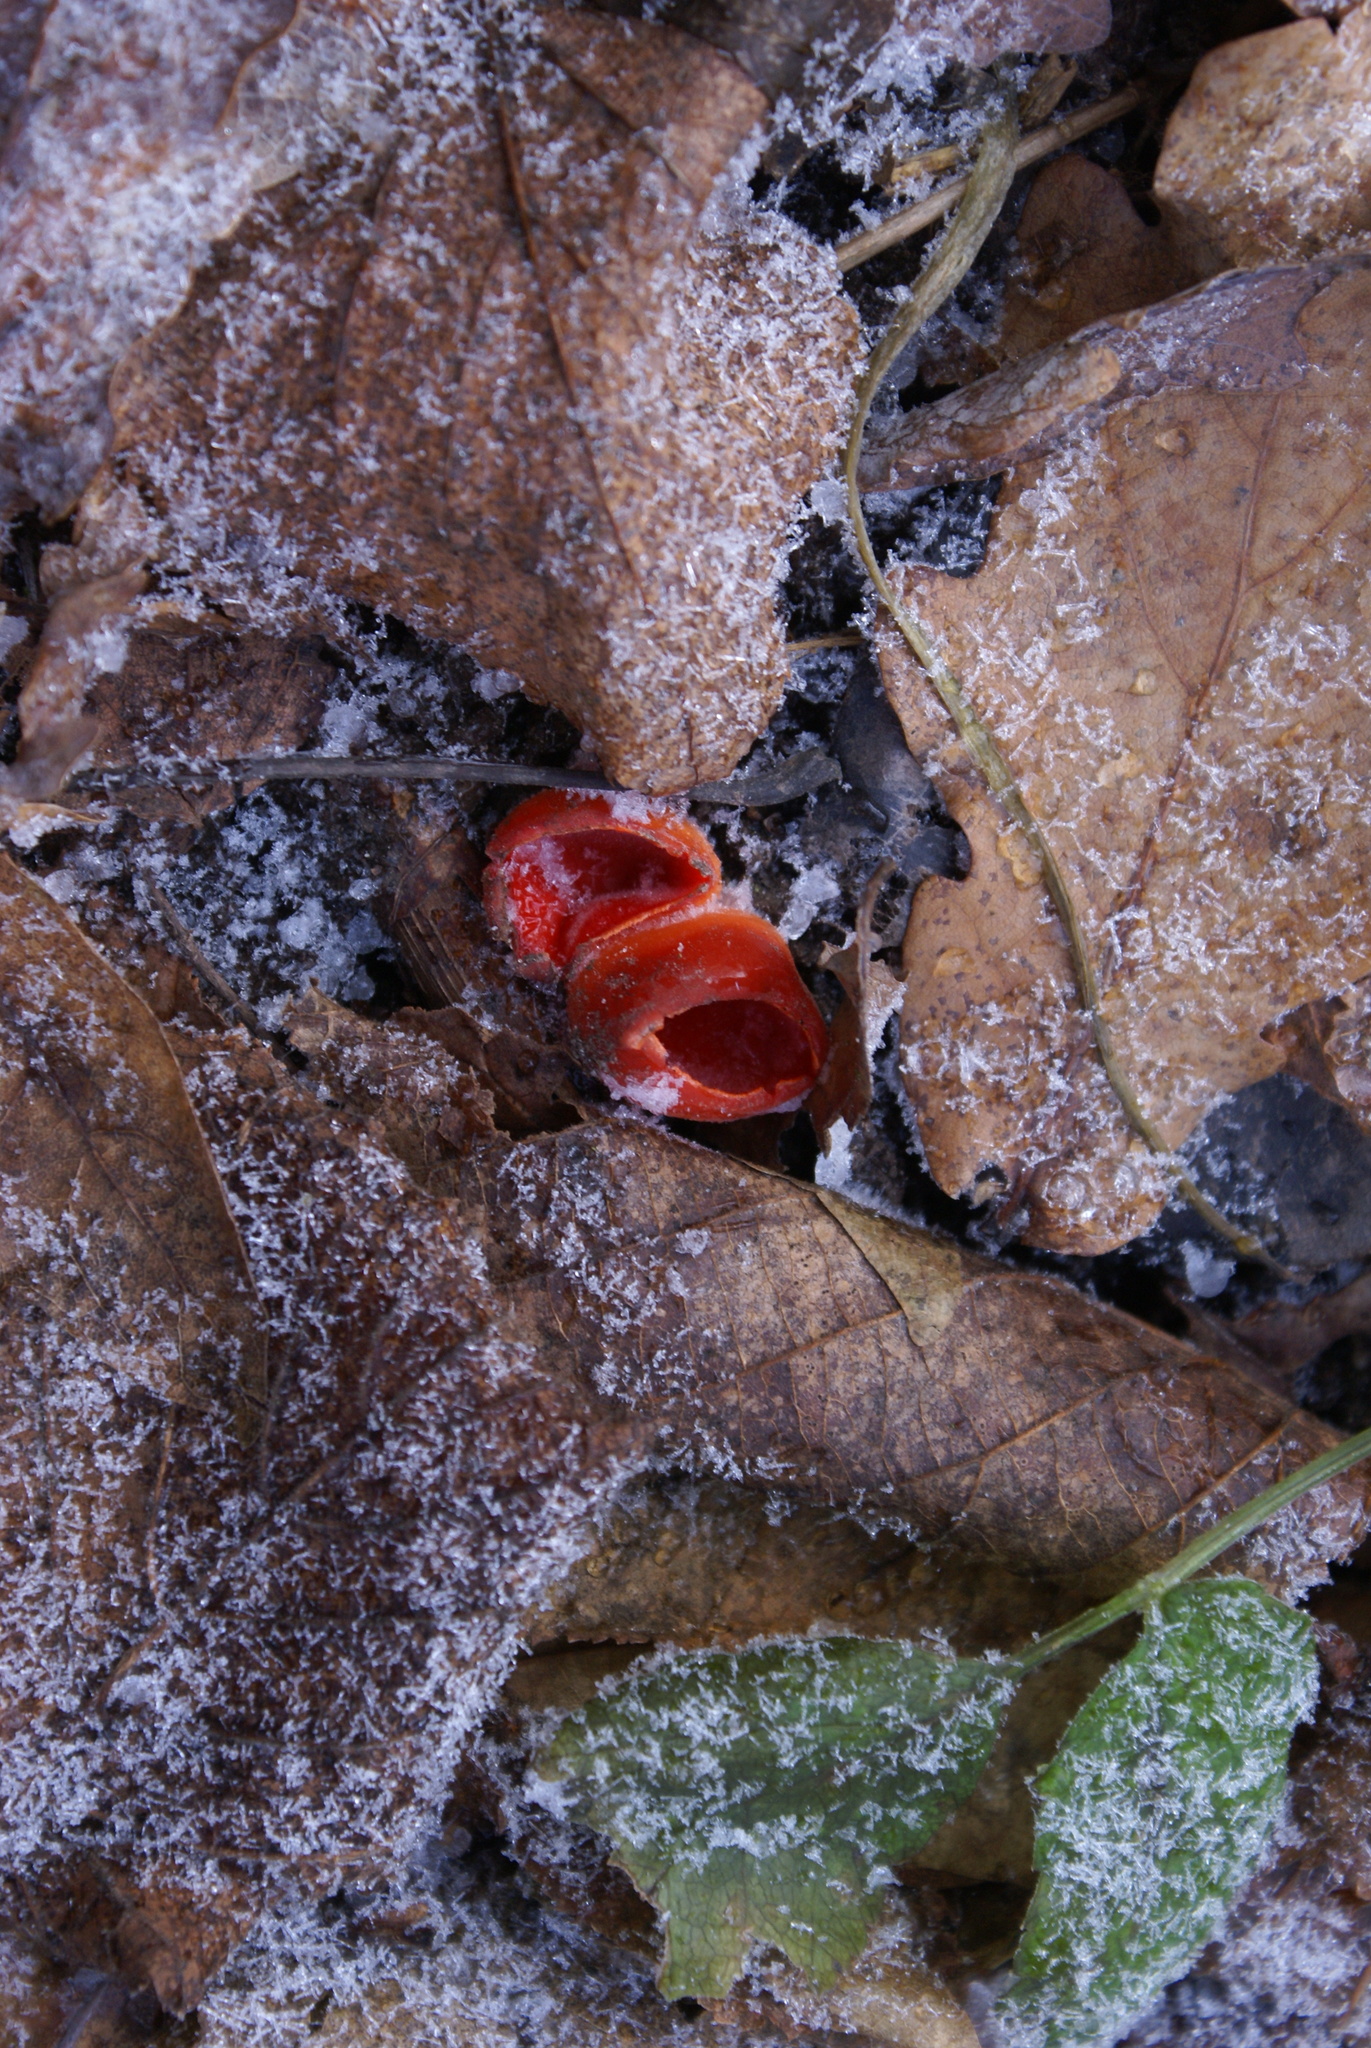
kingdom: Fungi
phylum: Ascomycota
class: Pezizomycetes
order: Pezizales
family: Sarcoscyphaceae
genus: Sarcoscypha
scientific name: Sarcoscypha
